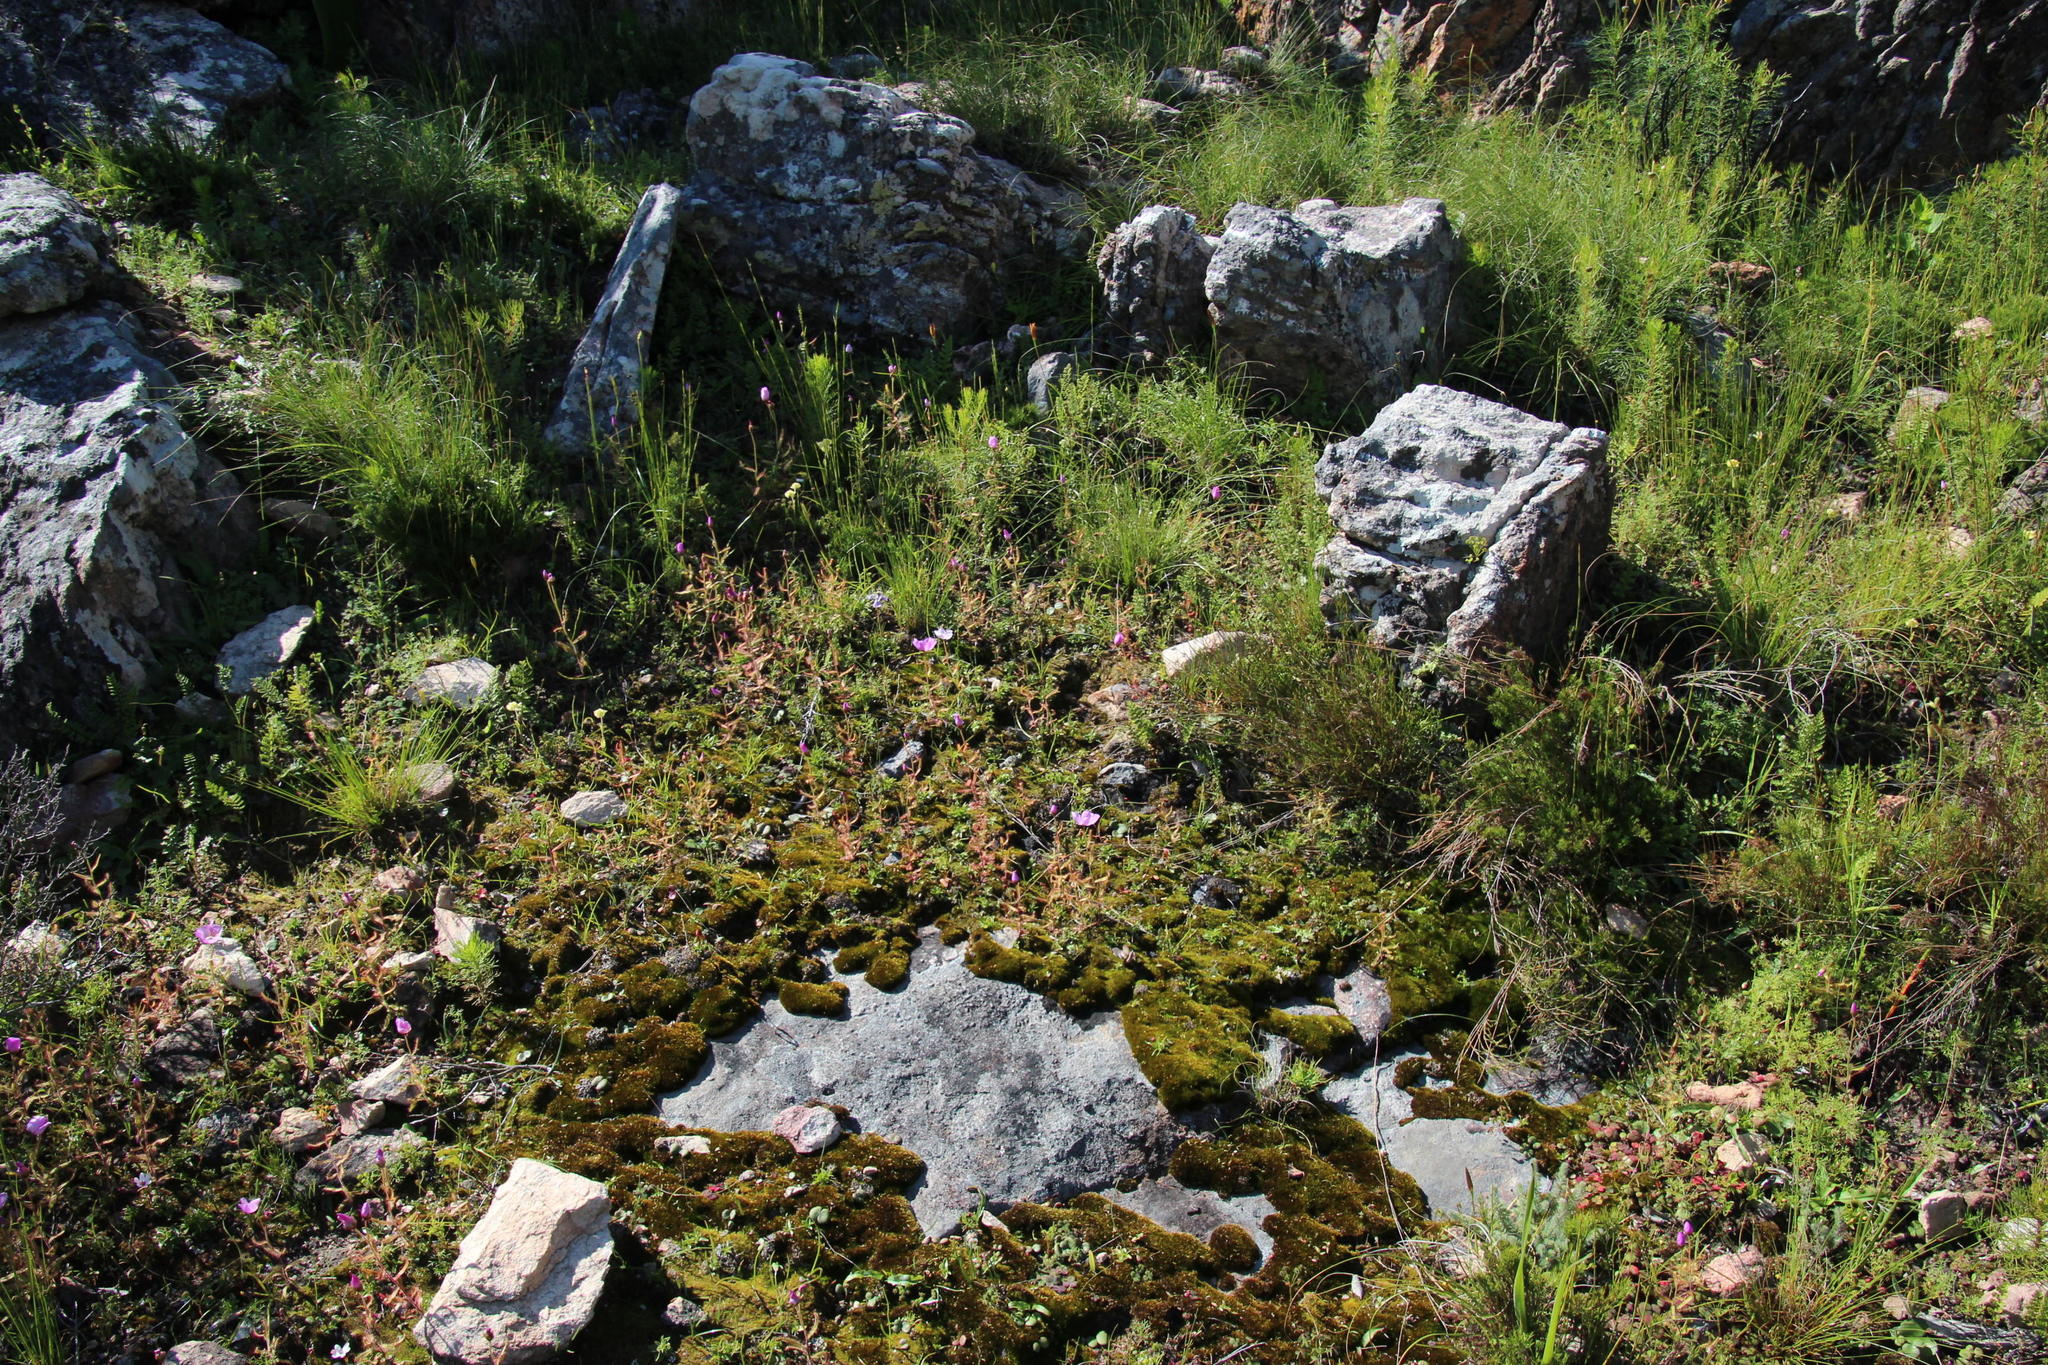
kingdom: Plantae
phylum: Tracheophyta
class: Magnoliopsida
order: Caryophyllales
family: Droseraceae
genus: Drosera
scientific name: Drosera cistiflora
